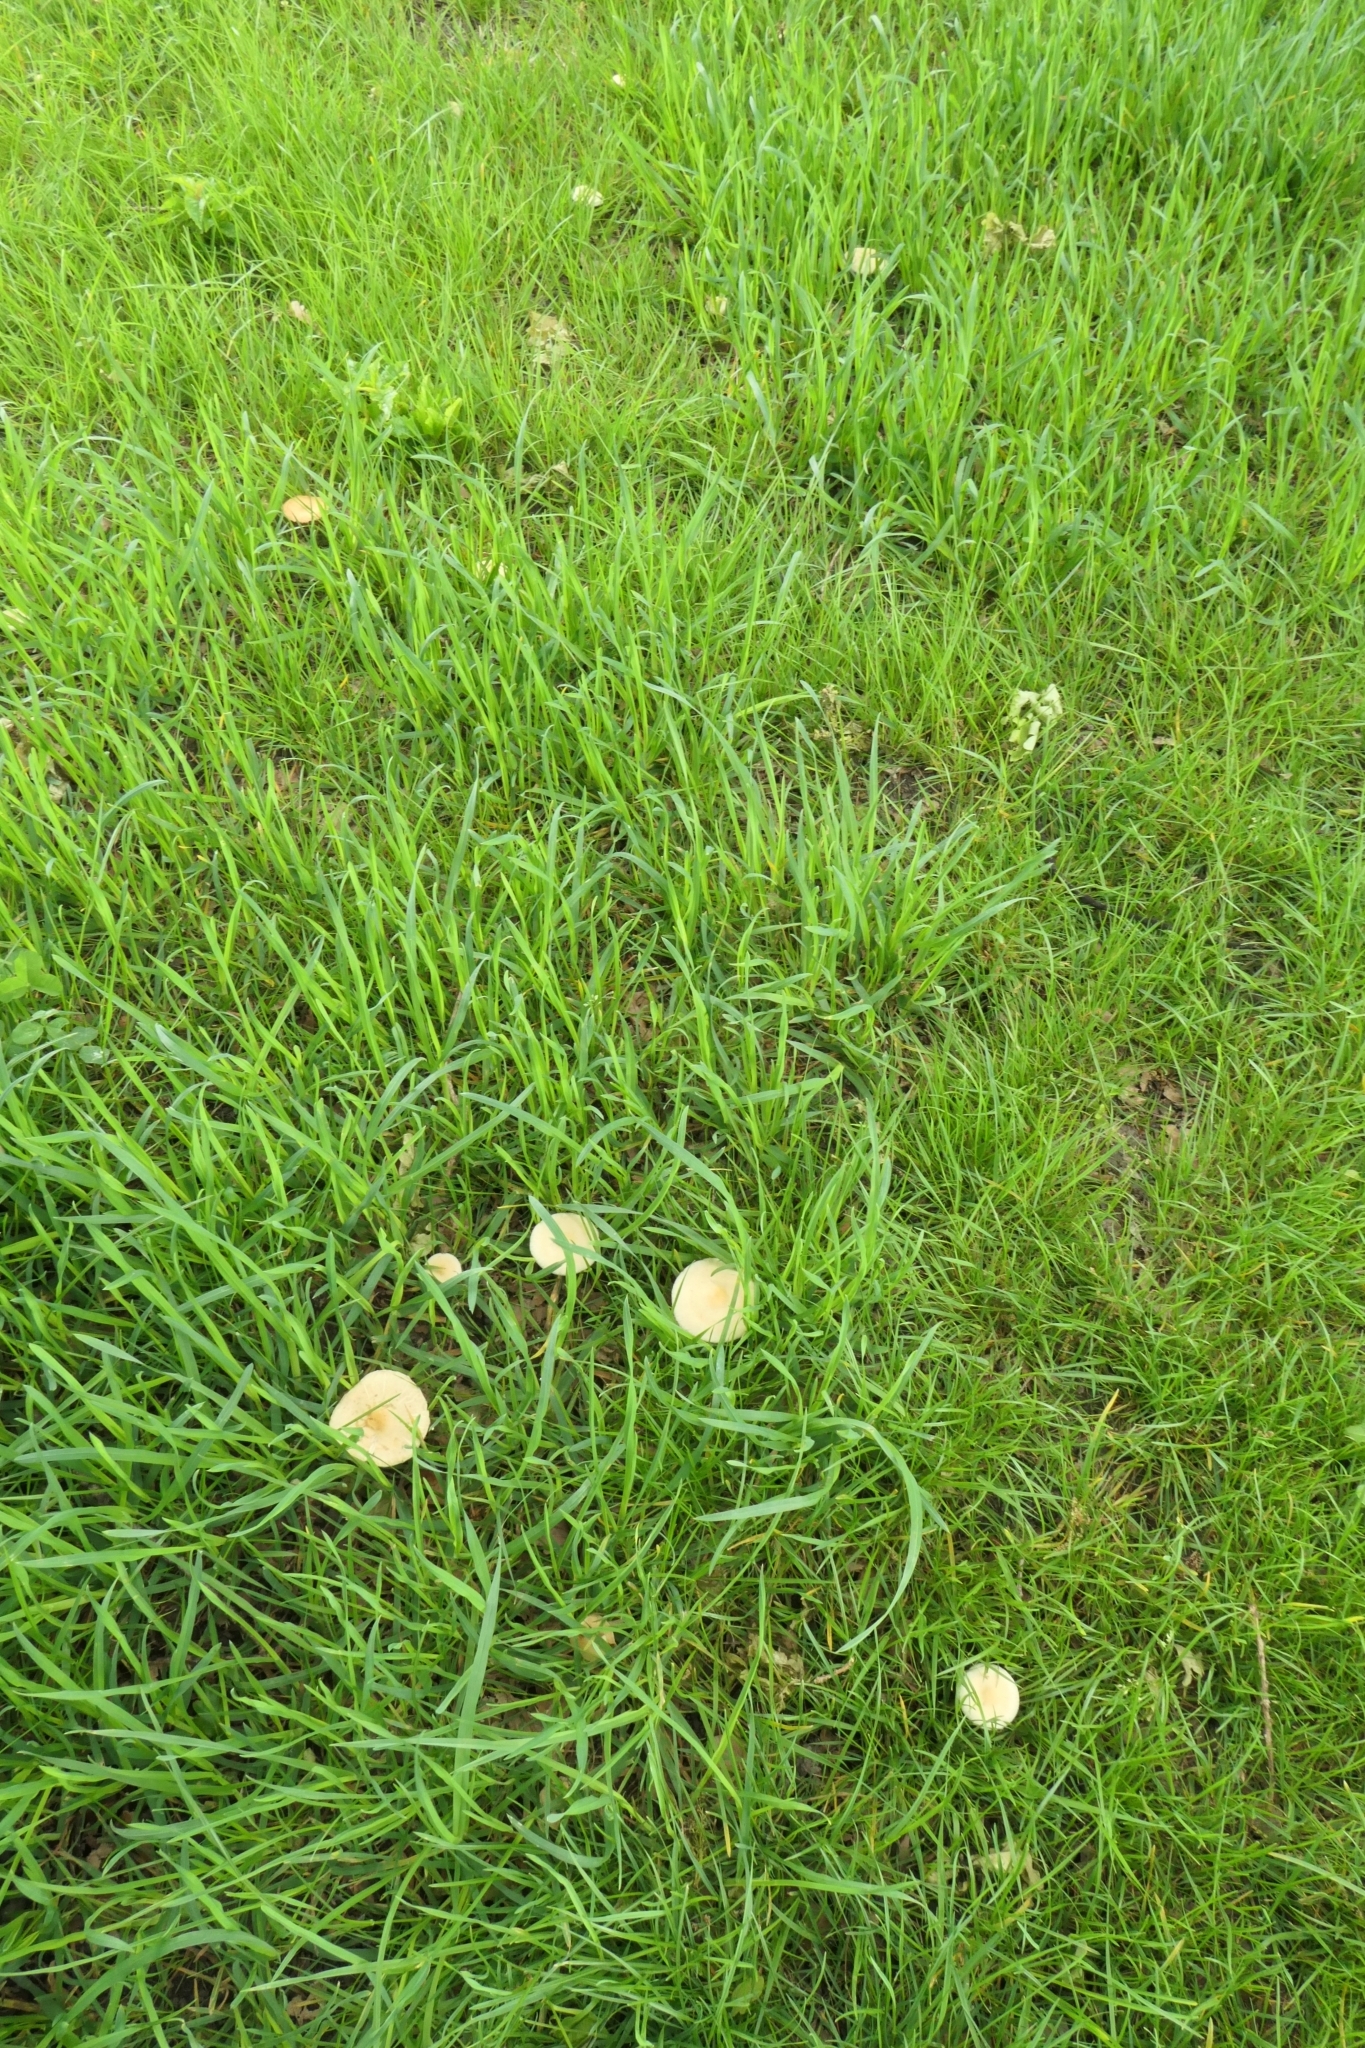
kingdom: Fungi
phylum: Basidiomycota
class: Agaricomycetes
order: Agaricales
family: Strophariaceae
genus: Agrocybe
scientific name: Agrocybe praecox
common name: Spring fieldcap
